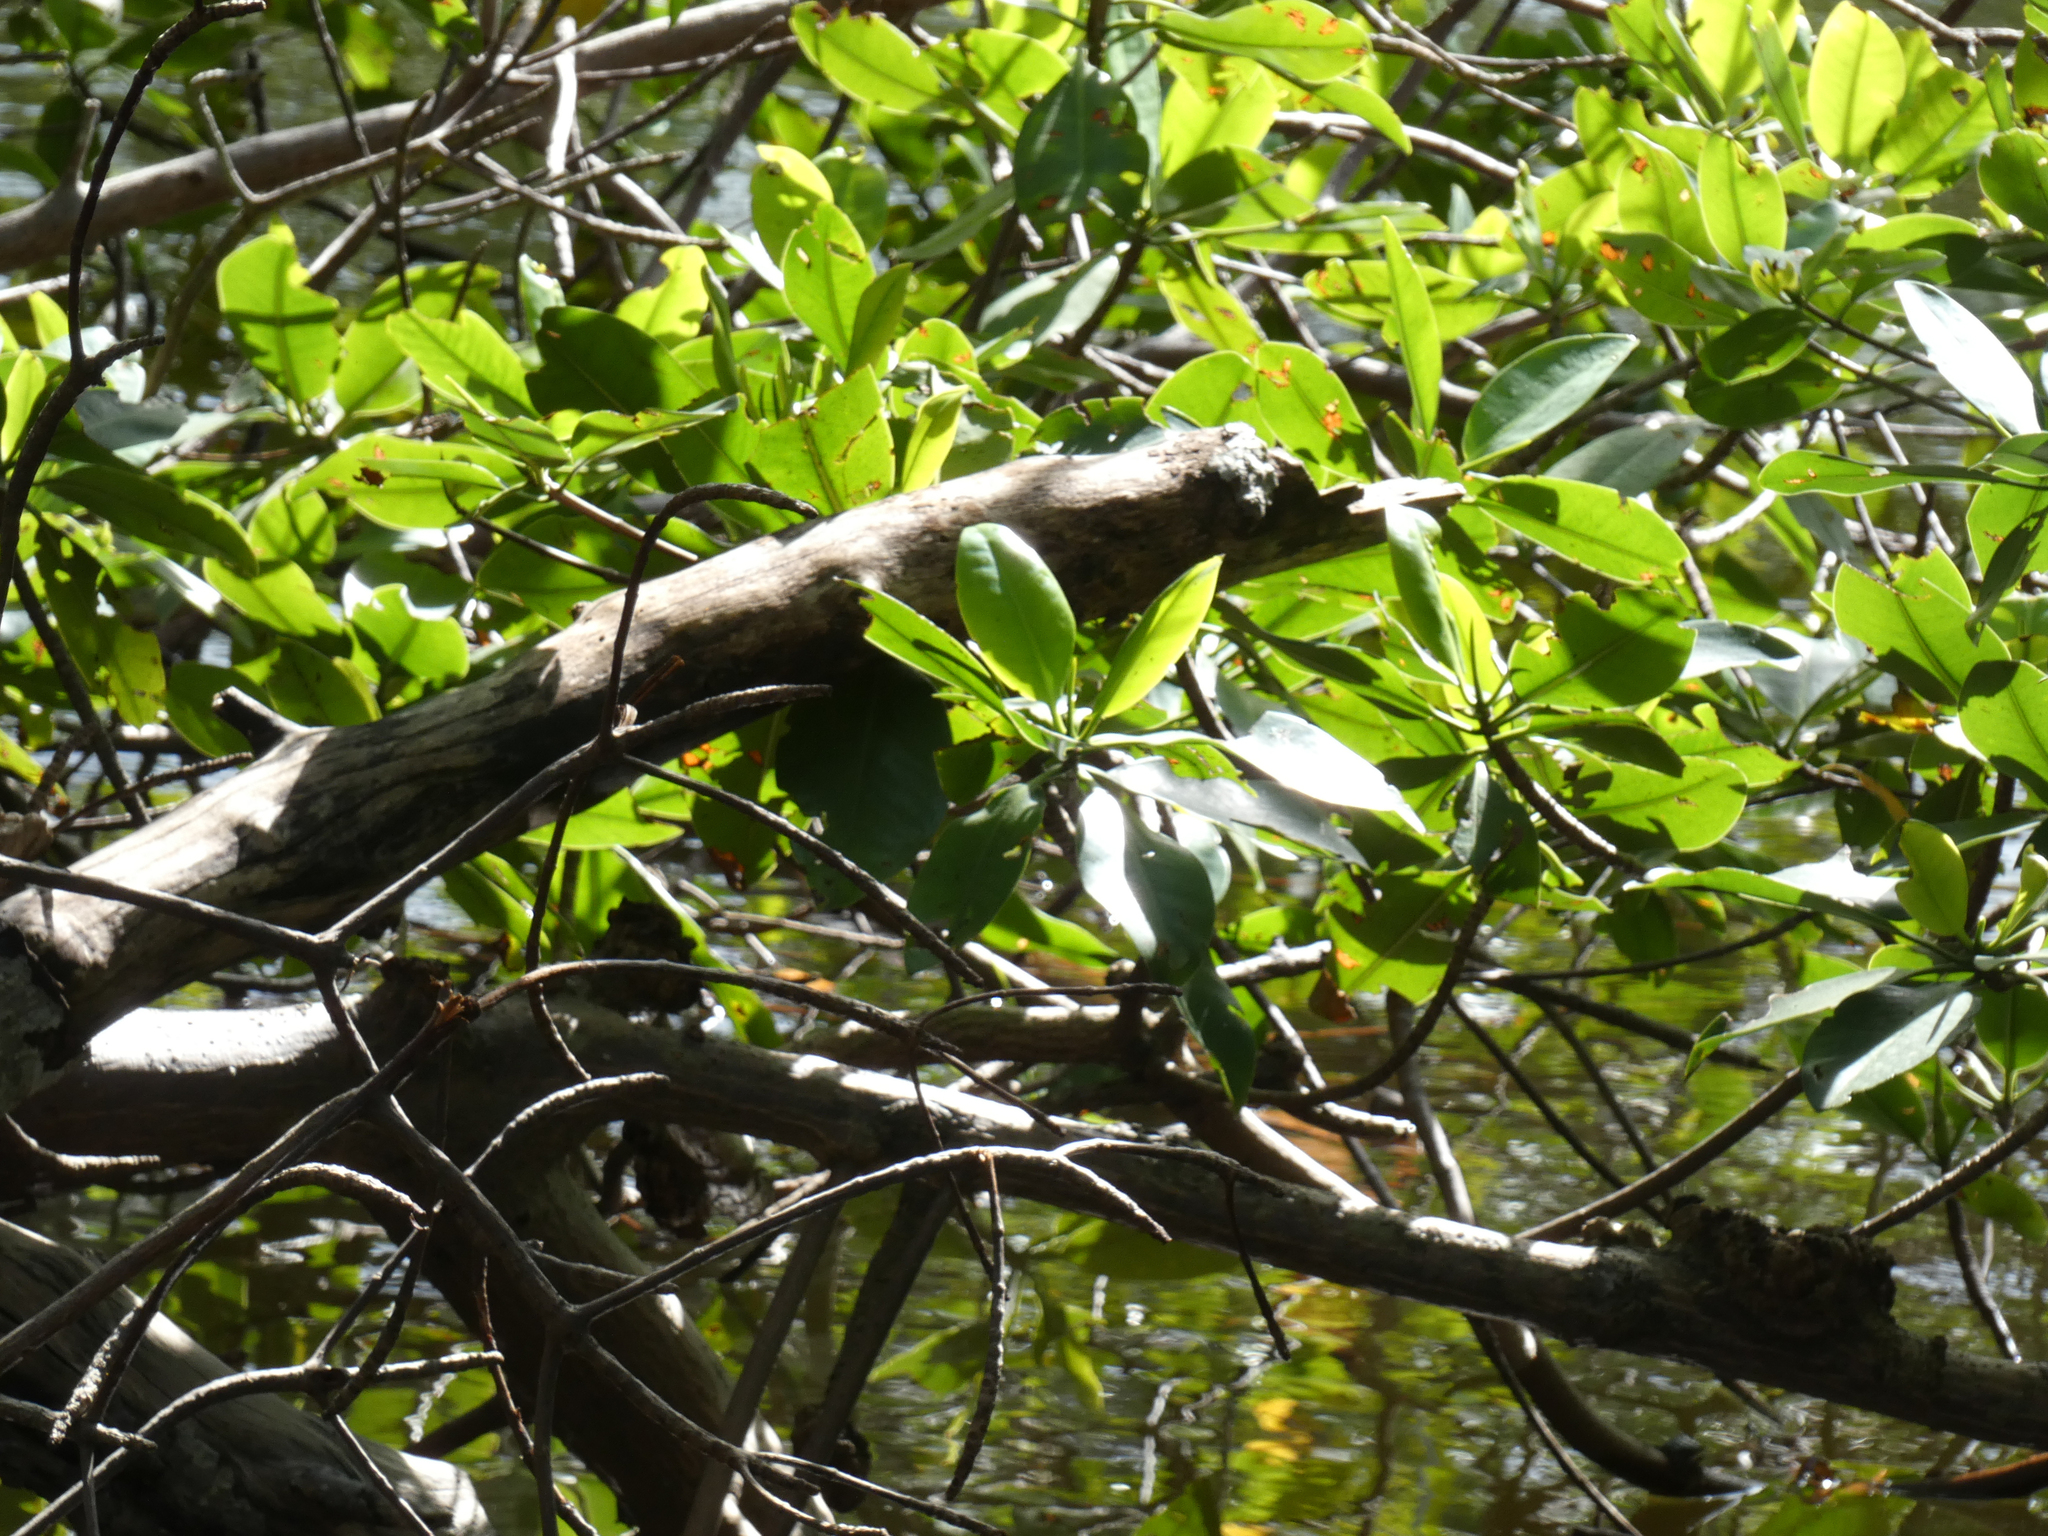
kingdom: Plantae
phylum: Tracheophyta
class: Magnoliopsida
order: Malpighiales
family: Rhizophoraceae
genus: Rhizophora
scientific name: Rhizophora mangle
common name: Red mangrove
